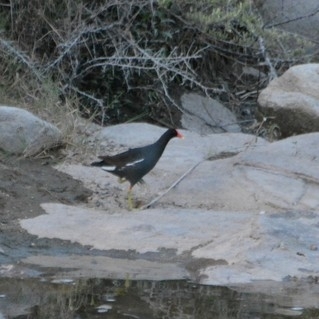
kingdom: Animalia
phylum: Chordata
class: Aves
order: Gruiformes
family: Rallidae
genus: Gallinula
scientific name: Gallinula chloropus
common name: Common moorhen
